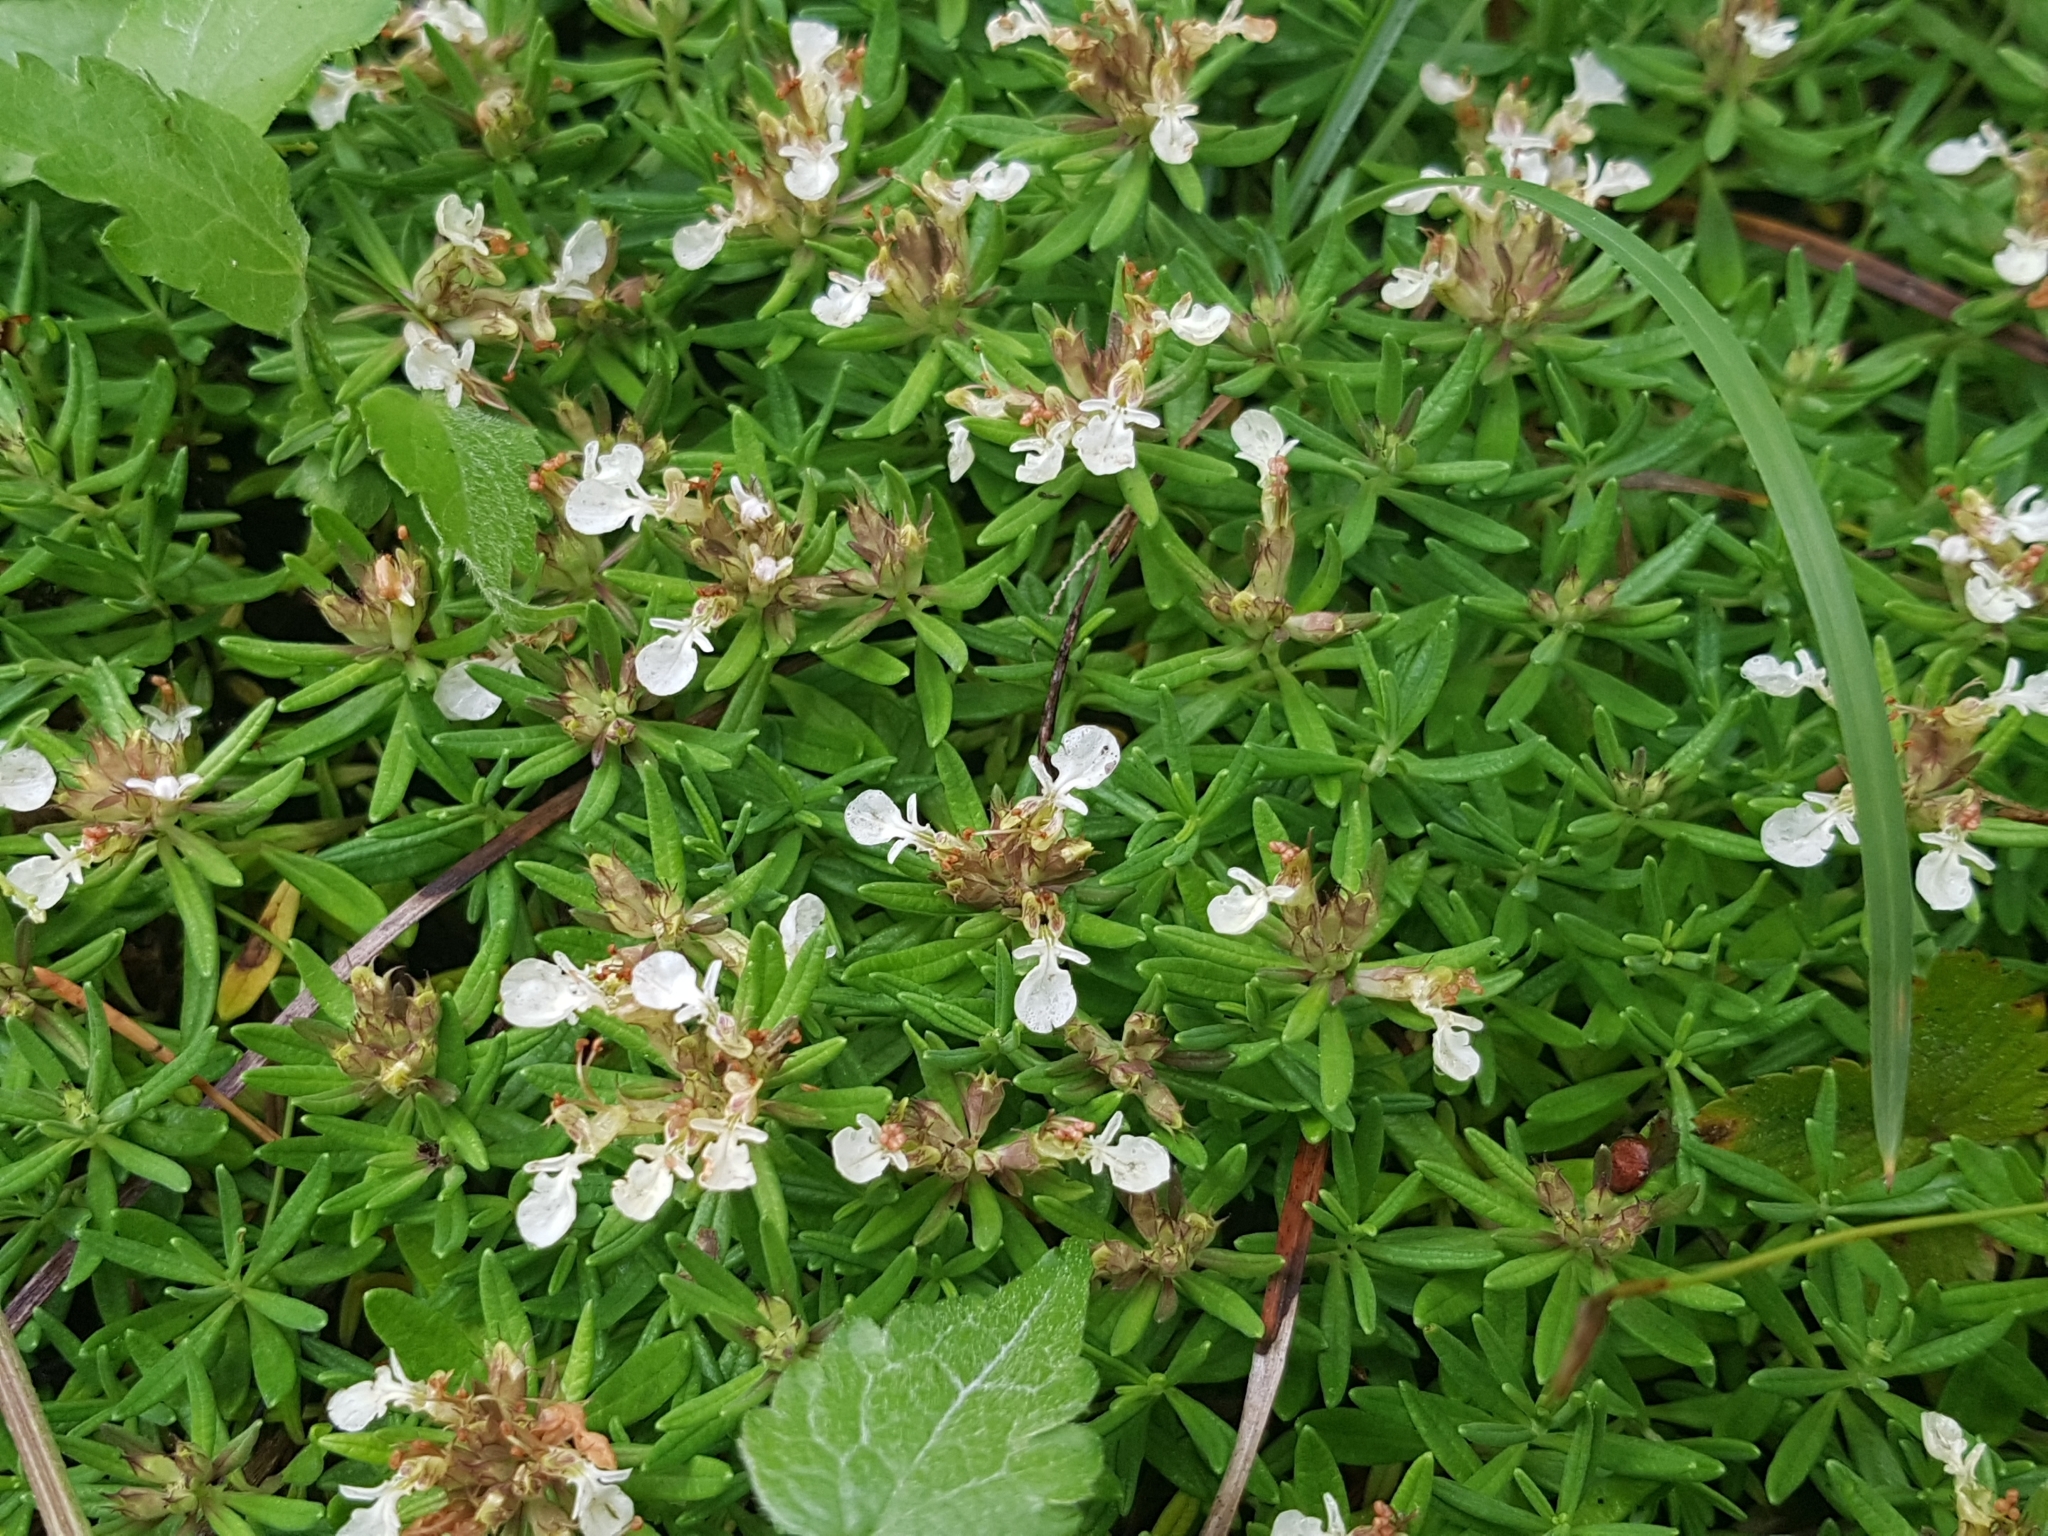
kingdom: Plantae
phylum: Tracheophyta
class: Magnoliopsida
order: Lamiales
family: Lamiaceae
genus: Teucrium
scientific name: Teucrium montanum
